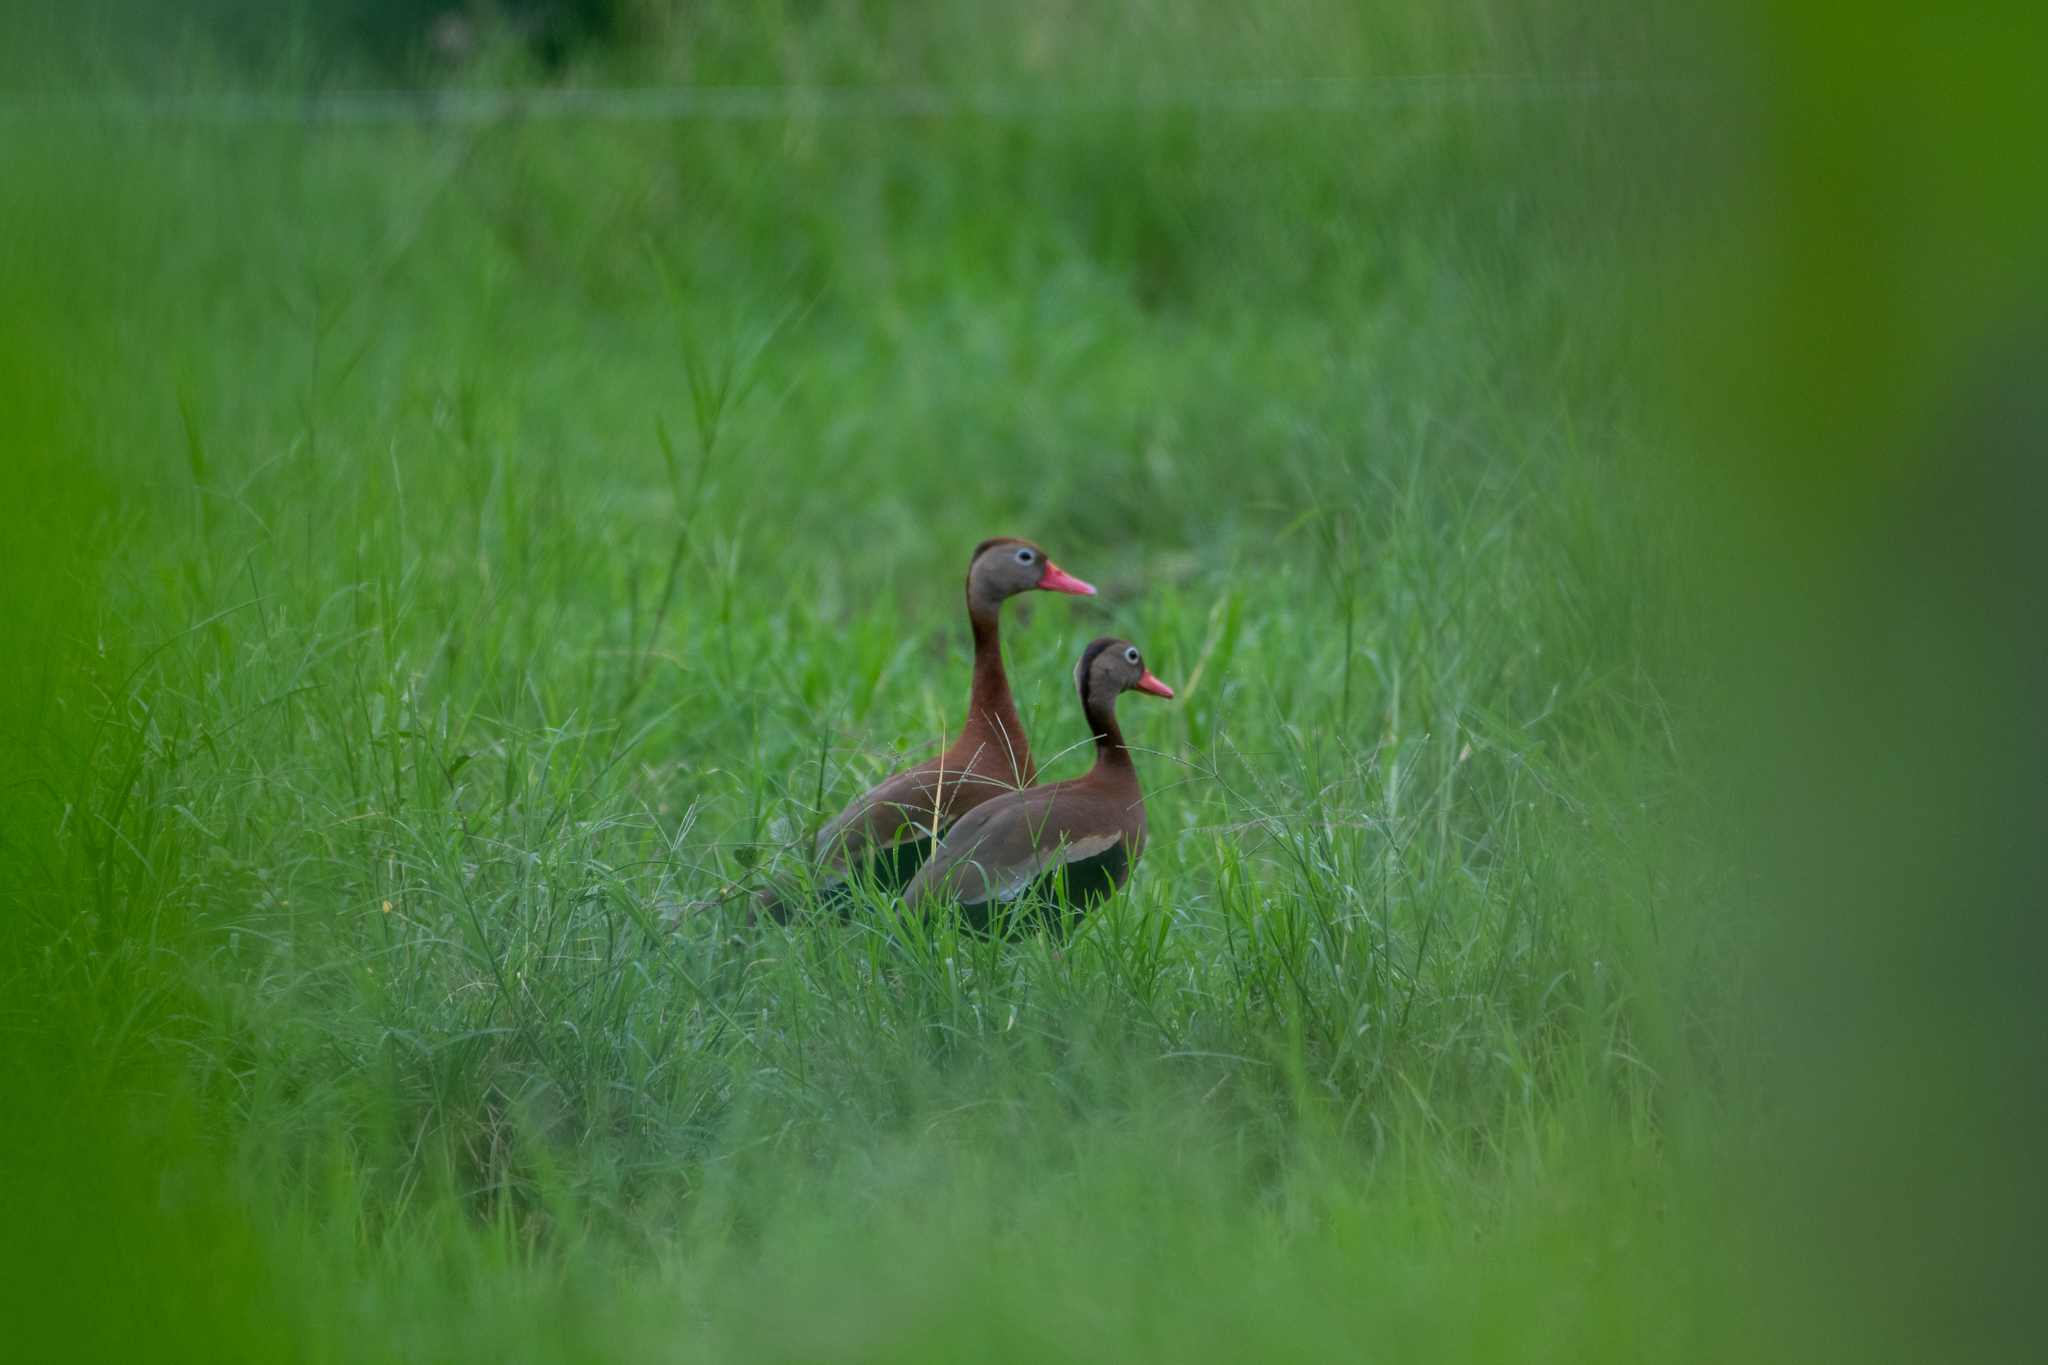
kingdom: Animalia
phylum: Chordata
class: Aves
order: Anseriformes
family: Anatidae
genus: Dendrocygna
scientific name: Dendrocygna autumnalis
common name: Black-bellied whistling duck
